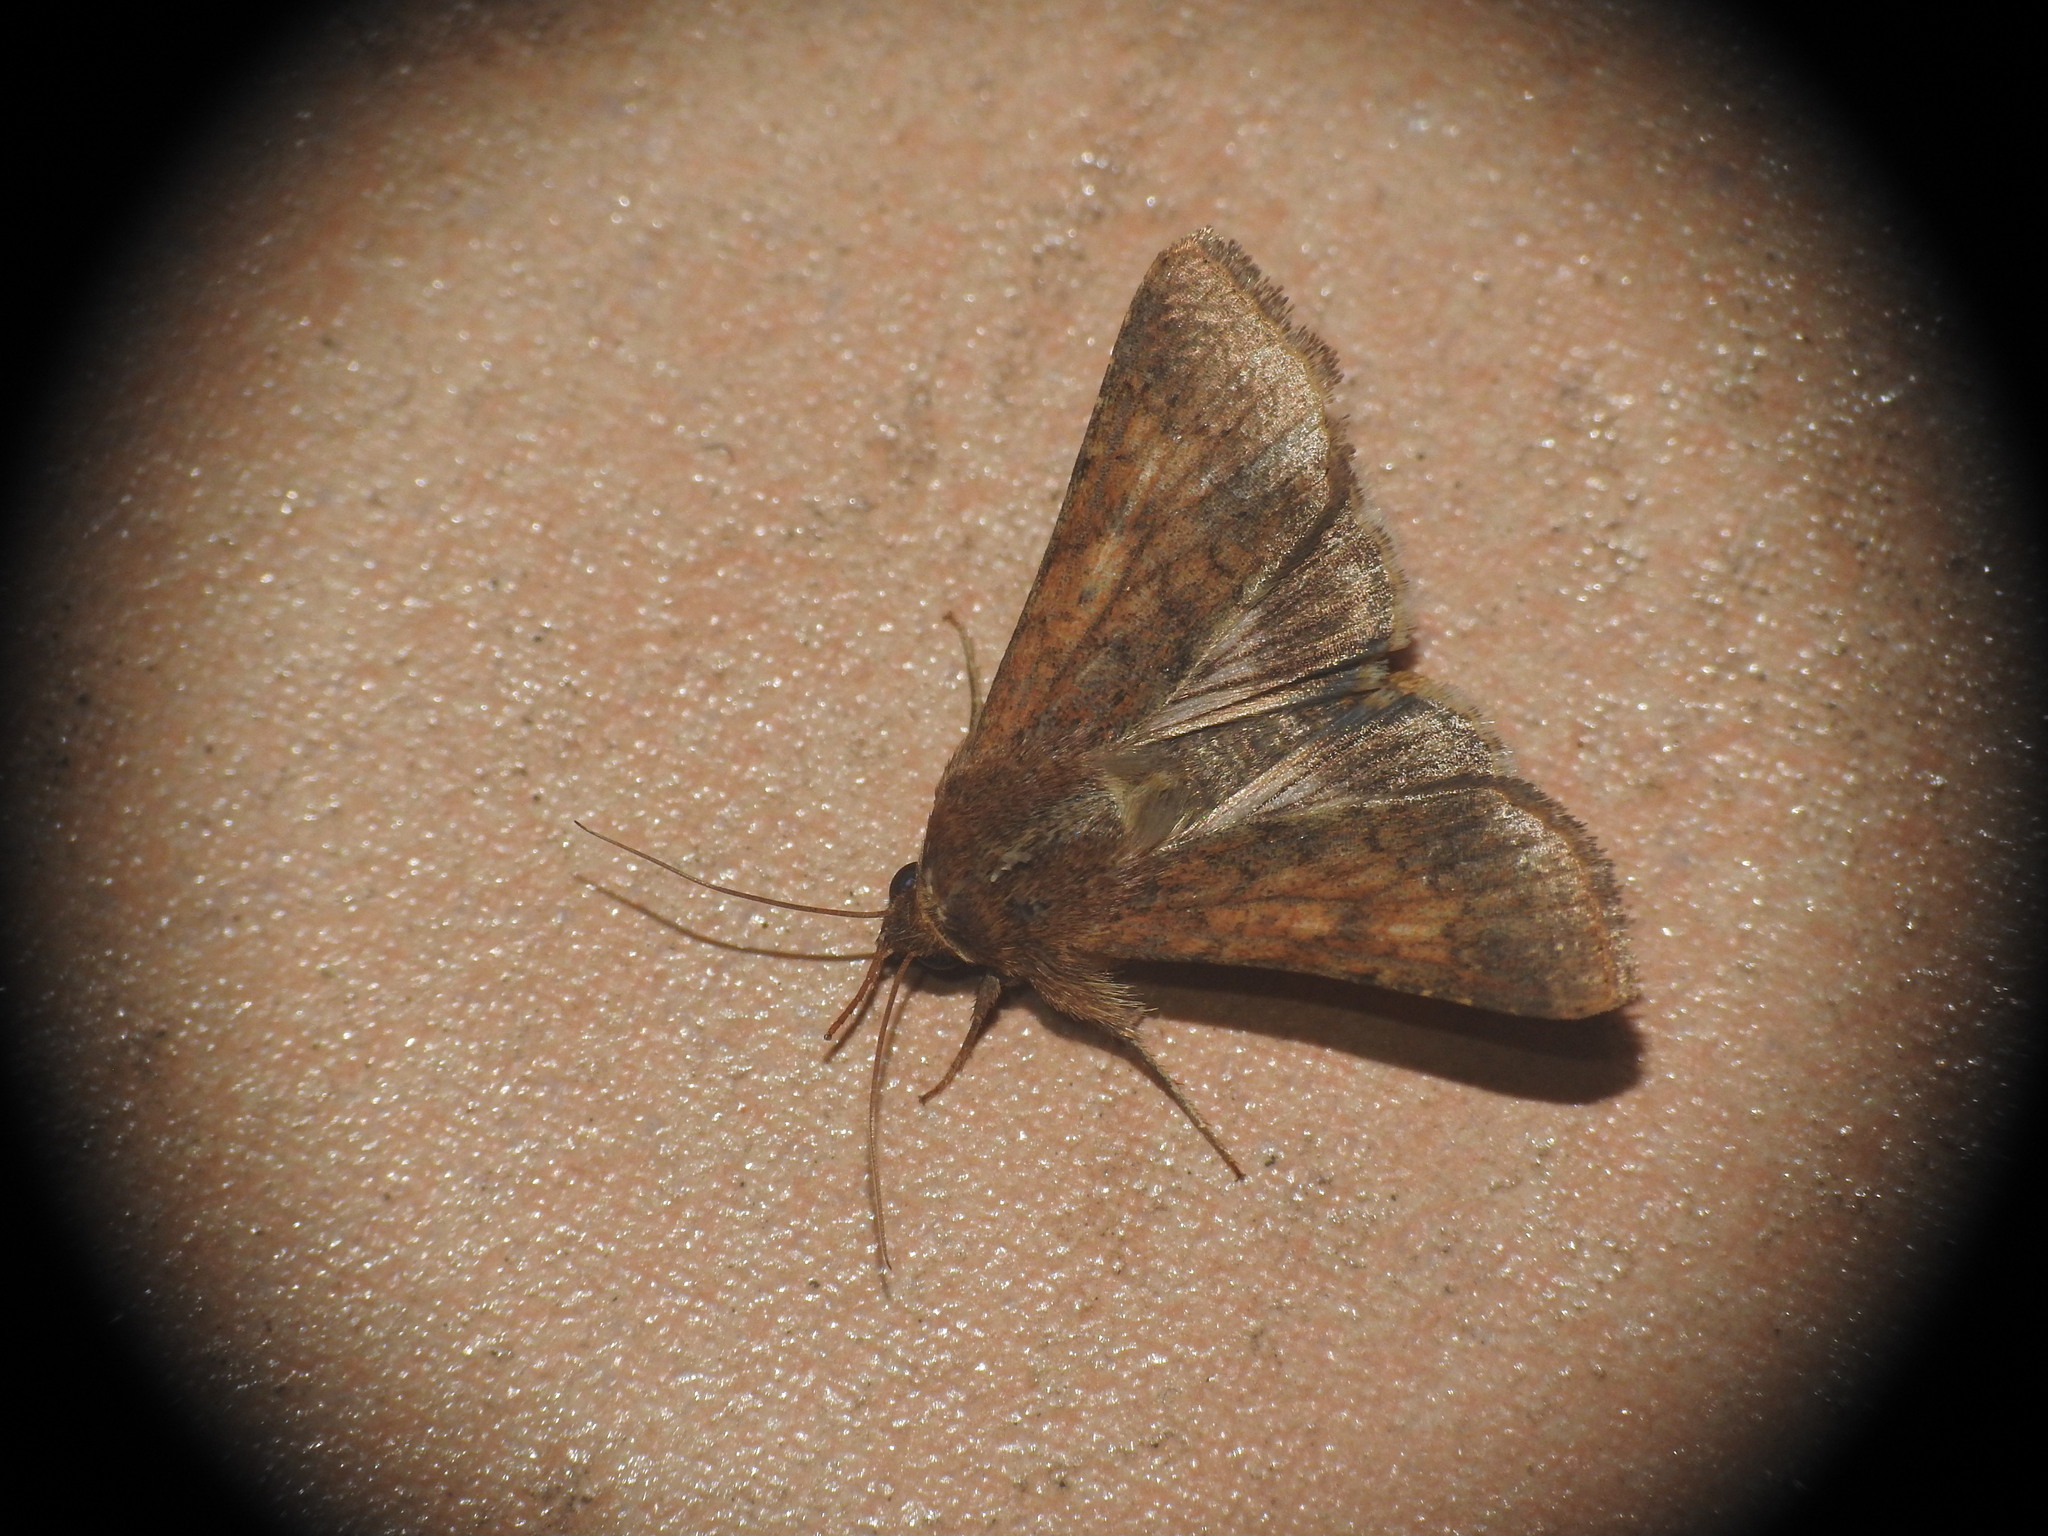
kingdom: Animalia
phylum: Arthropoda
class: Insecta
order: Lepidoptera
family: Noctuidae
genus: Helicoverpa
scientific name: Helicoverpa armigera
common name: Cotton bollworm
